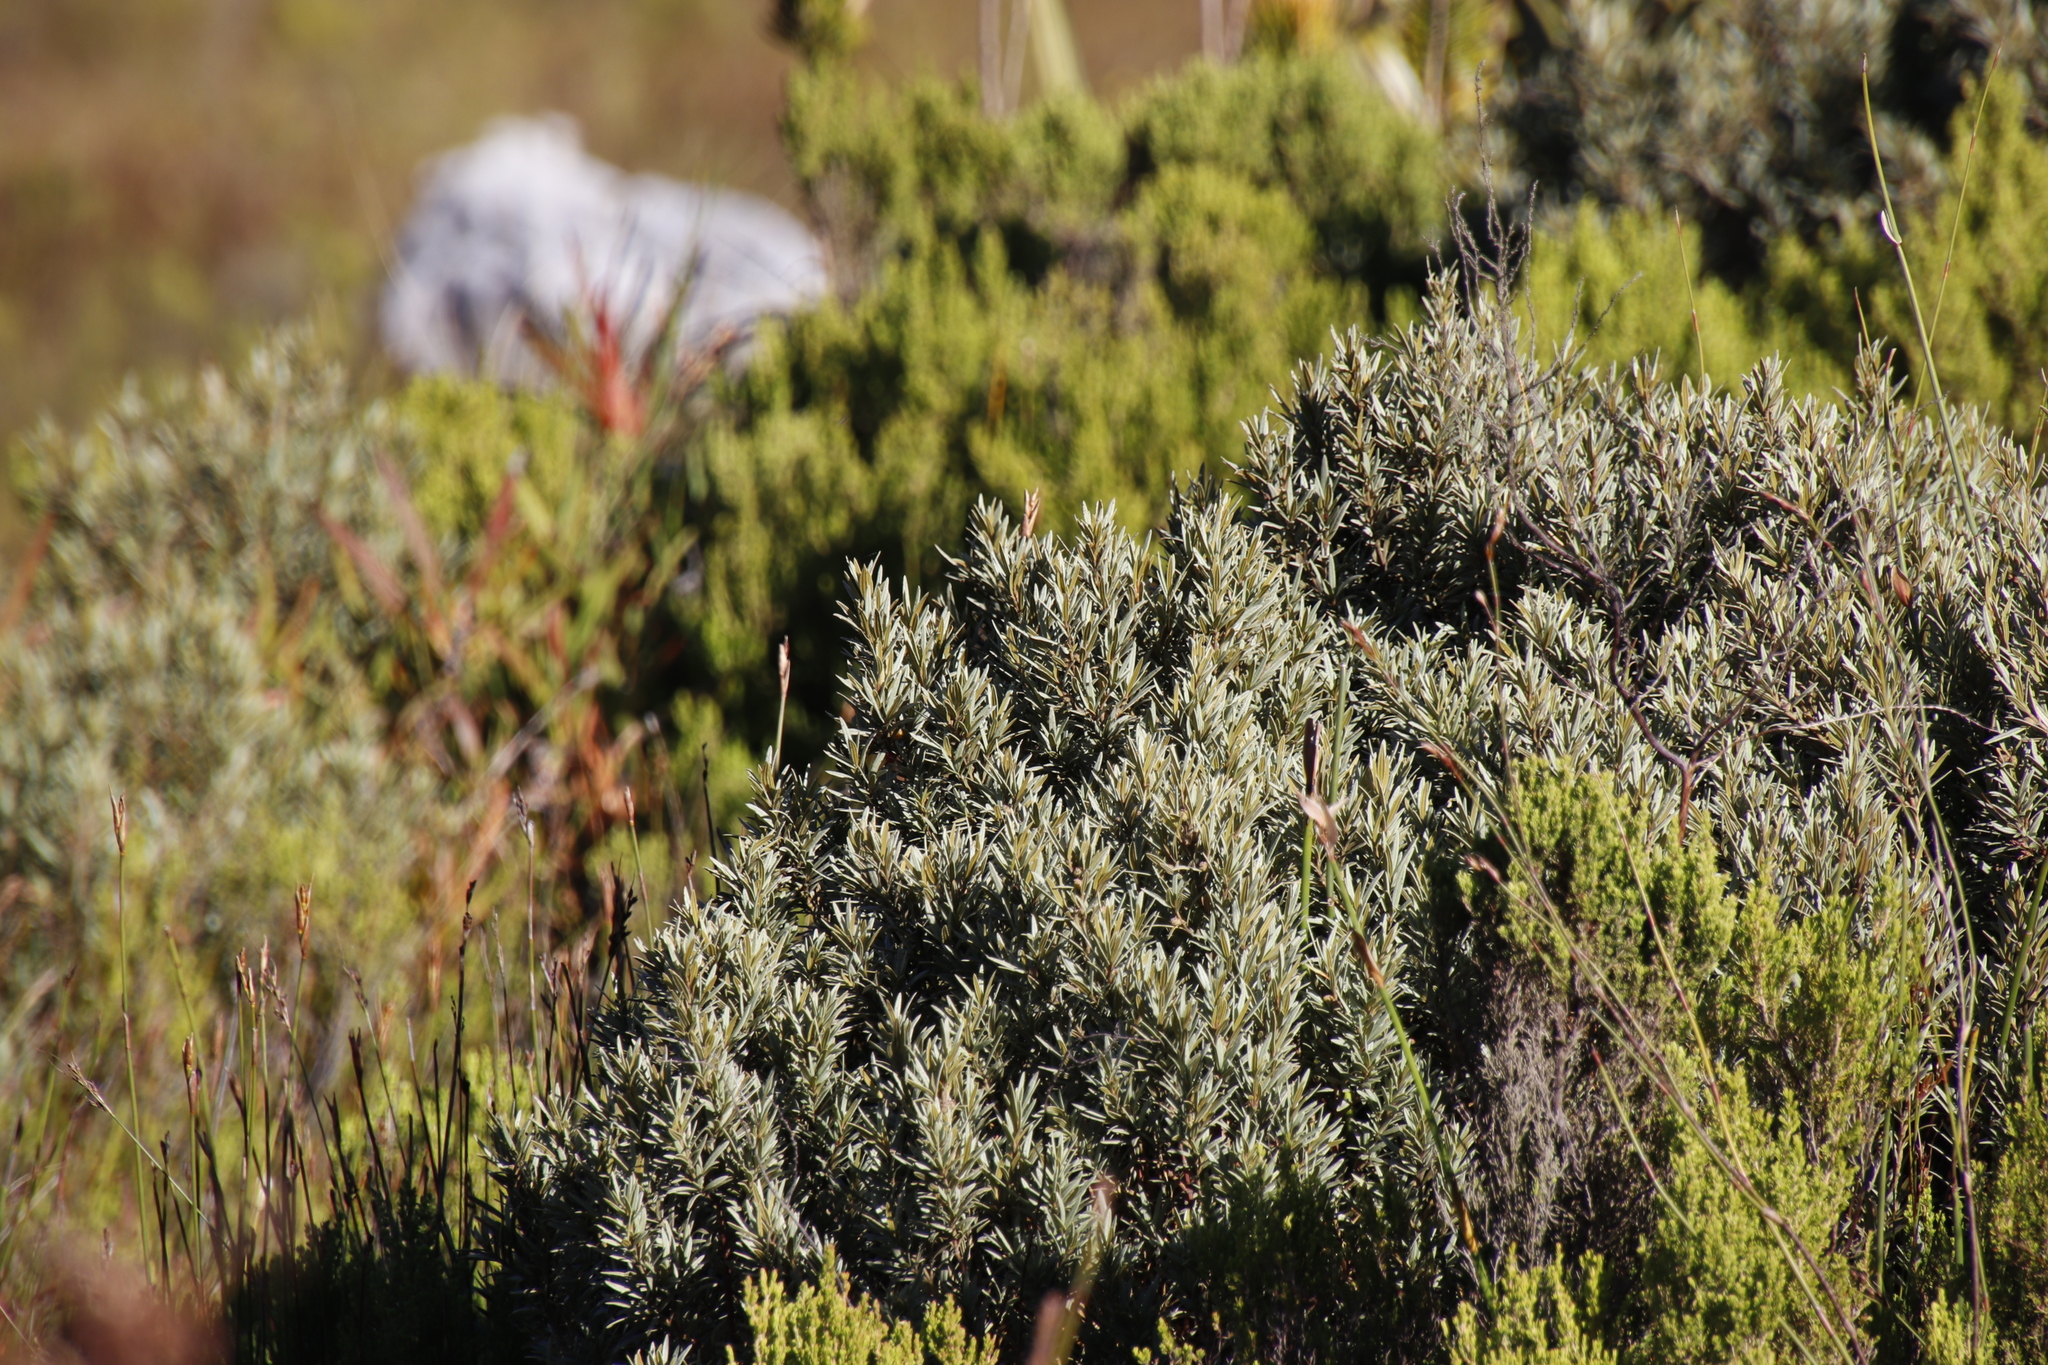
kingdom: Plantae
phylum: Tracheophyta
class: Magnoliopsida
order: Cornales
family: Grubbiaceae
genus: Grubbia
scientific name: Grubbia tomentosa
